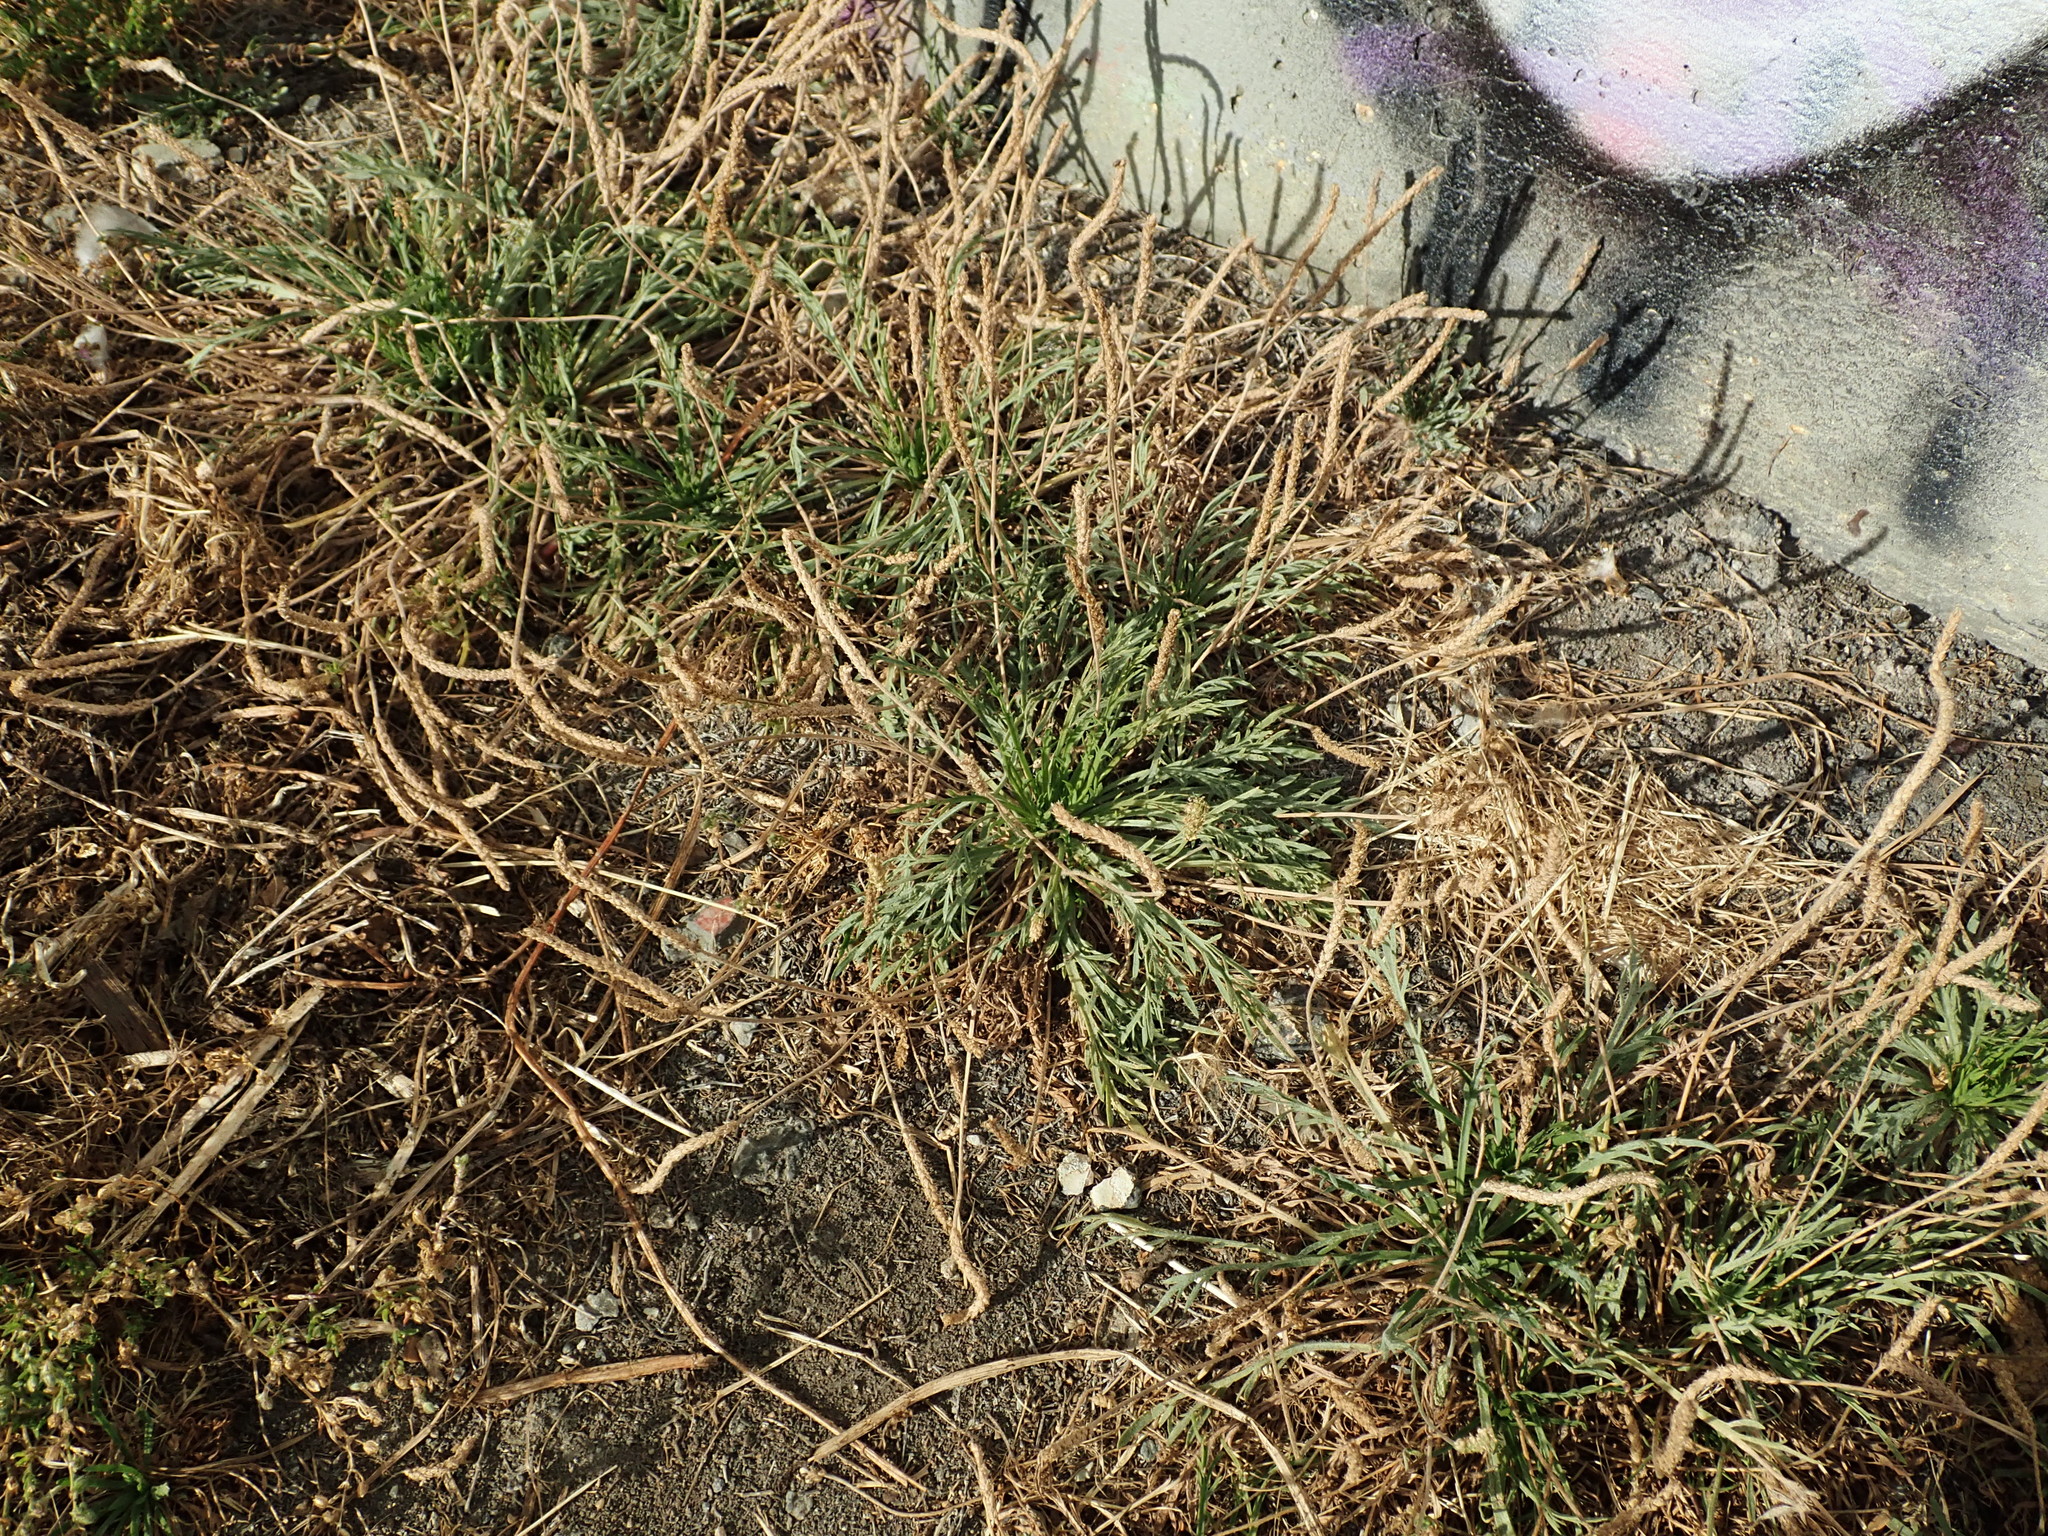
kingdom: Plantae
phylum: Tracheophyta
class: Magnoliopsida
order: Lamiales
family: Plantaginaceae
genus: Plantago
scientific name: Plantago coronopus
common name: Buck's-horn plantain
